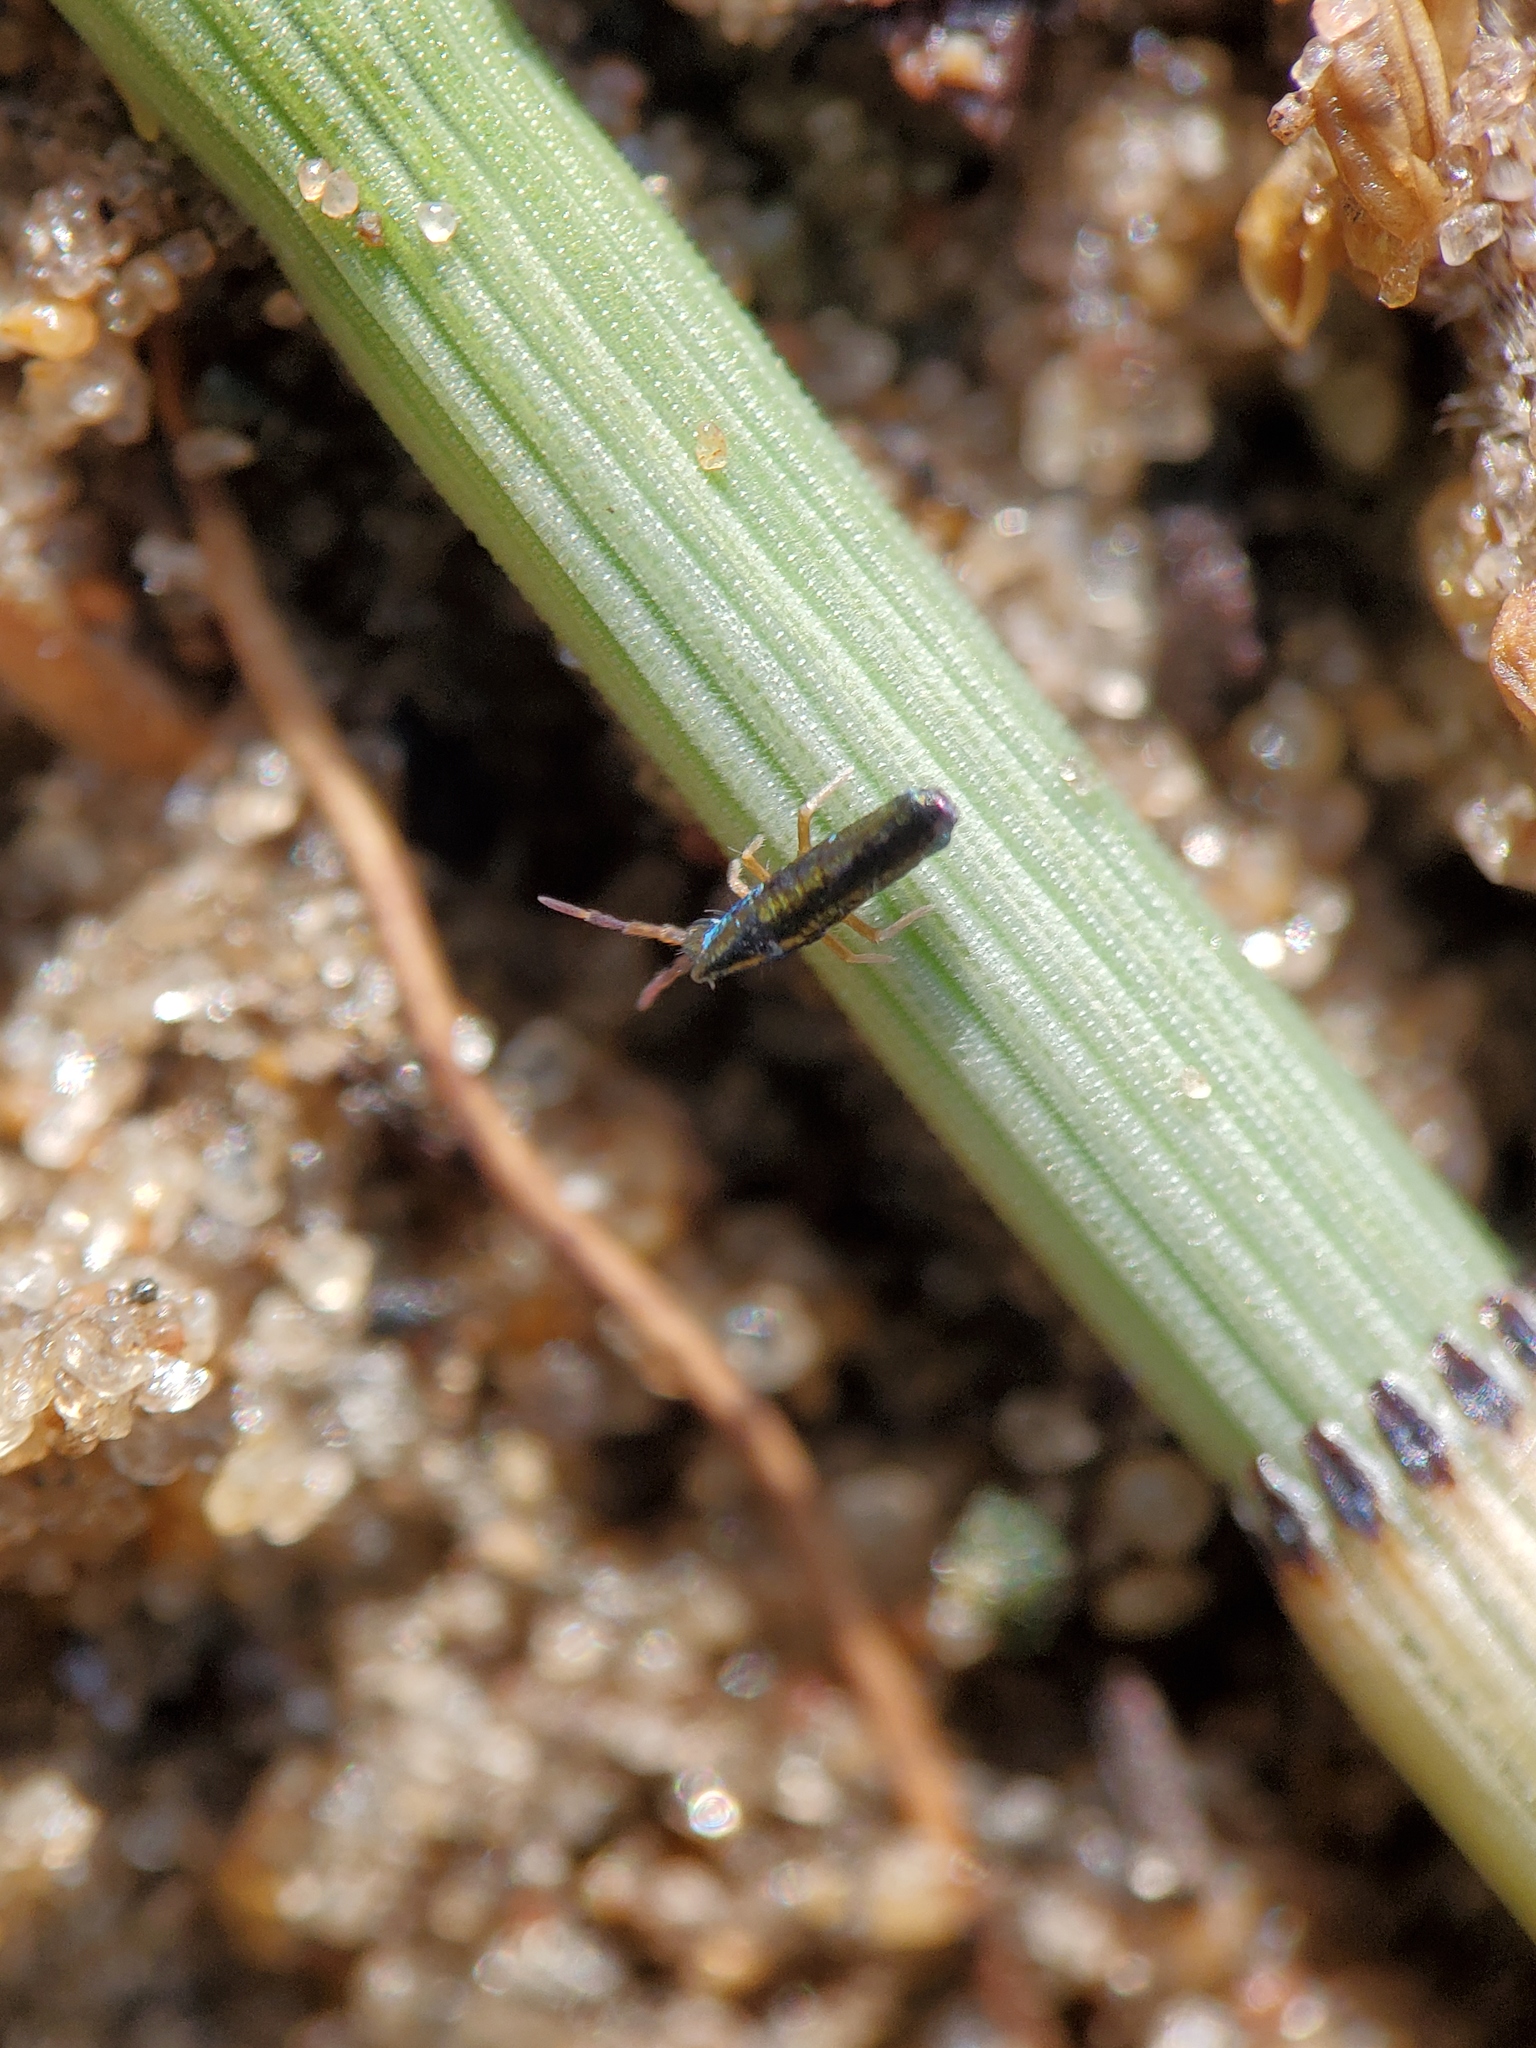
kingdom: Animalia
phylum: Arthropoda
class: Collembola
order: Entomobryomorpha
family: Entomobryidae
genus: Lepidocyrtus
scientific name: Lepidocyrtus paradoxus
